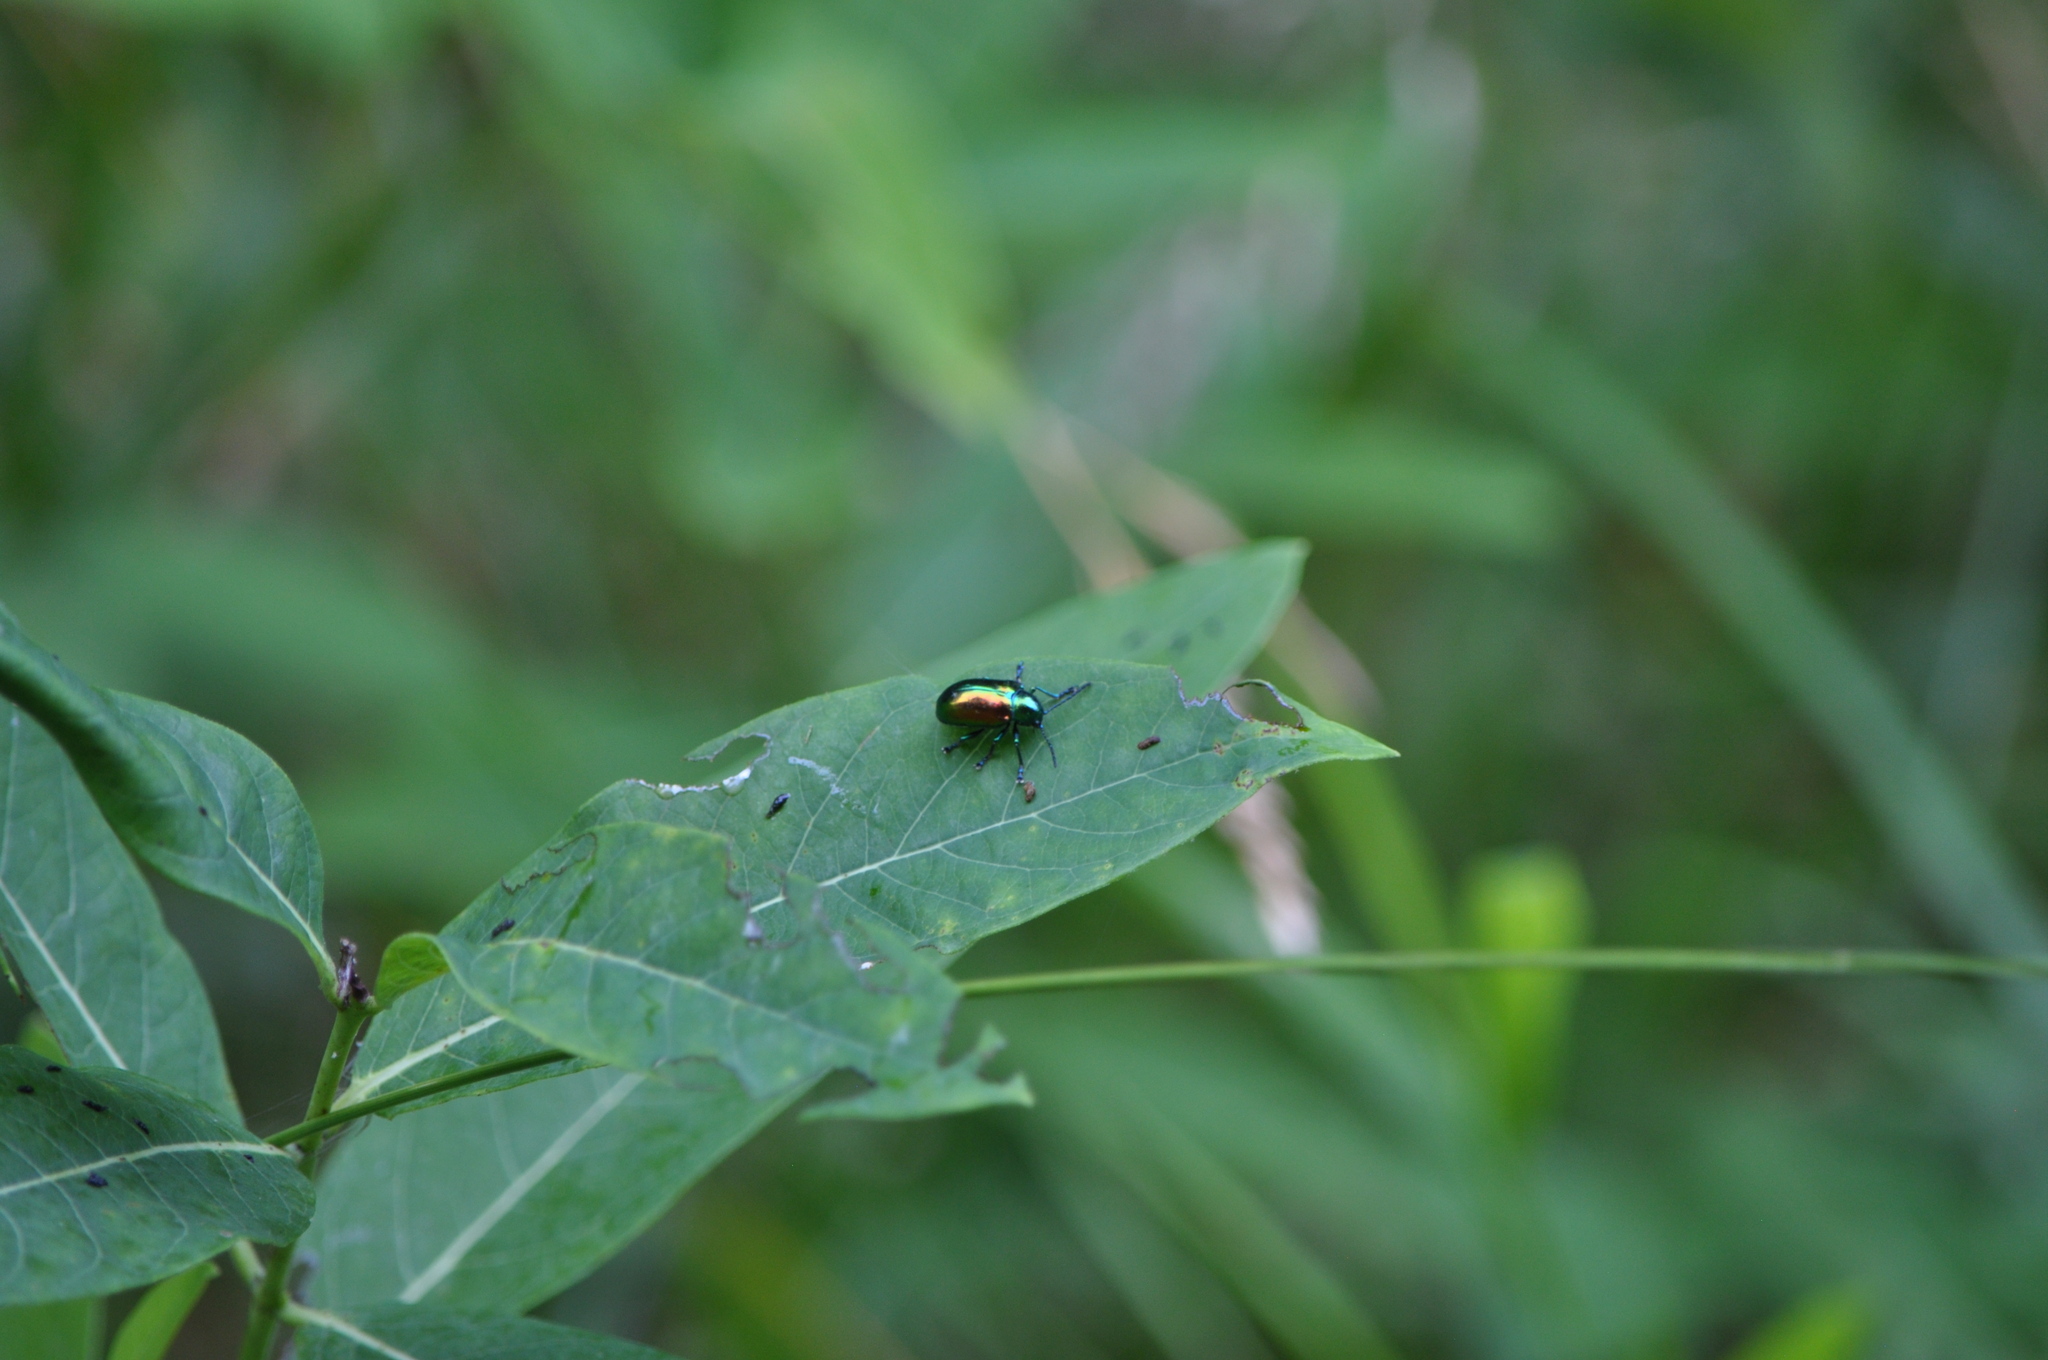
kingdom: Animalia
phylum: Arthropoda
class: Insecta
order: Coleoptera
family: Chrysomelidae
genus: Chrysochus
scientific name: Chrysochus auratus
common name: Dogbane leaf beetle
